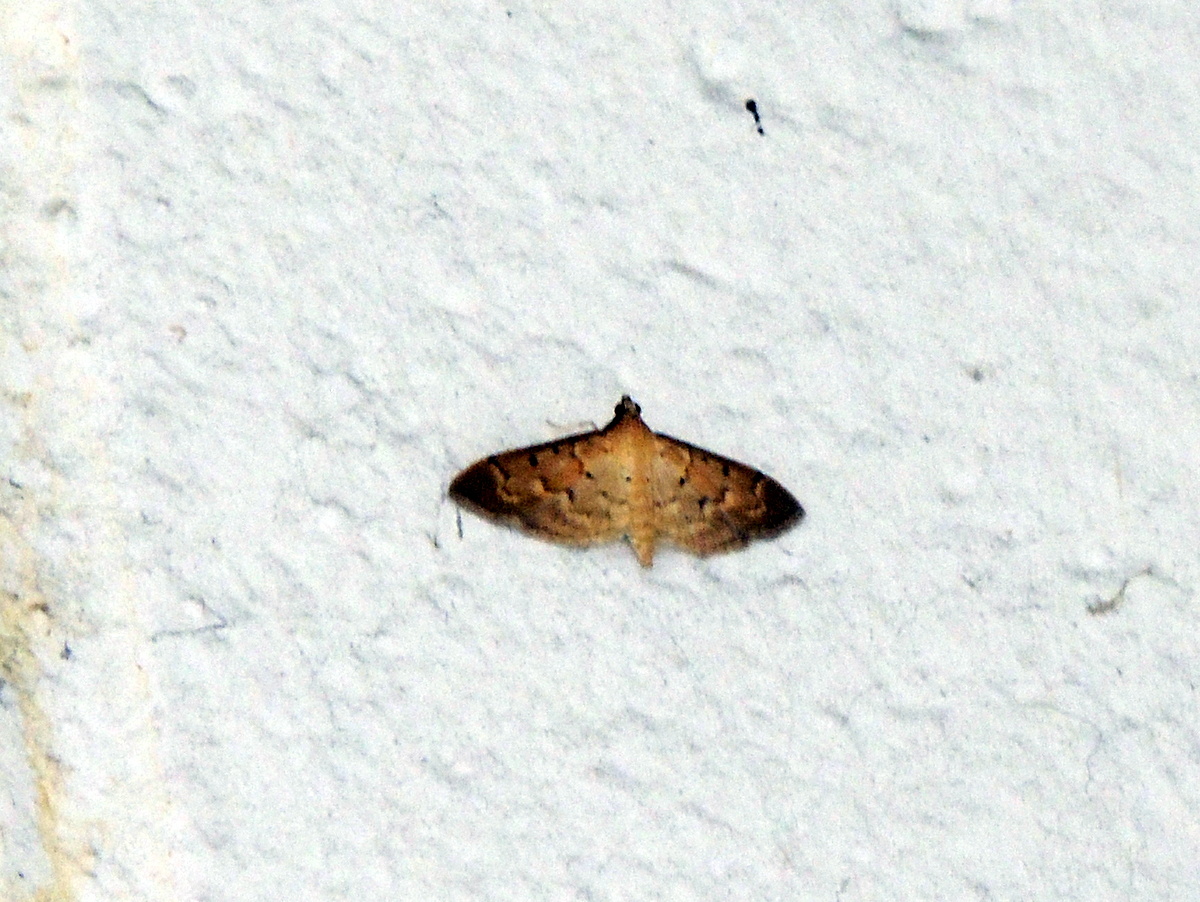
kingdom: Animalia
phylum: Arthropoda
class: Insecta
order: Lepidoptera
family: Crambidae
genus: Herpetogramma
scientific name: Herpetogramma bipunctalis
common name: Southern beet webworm
